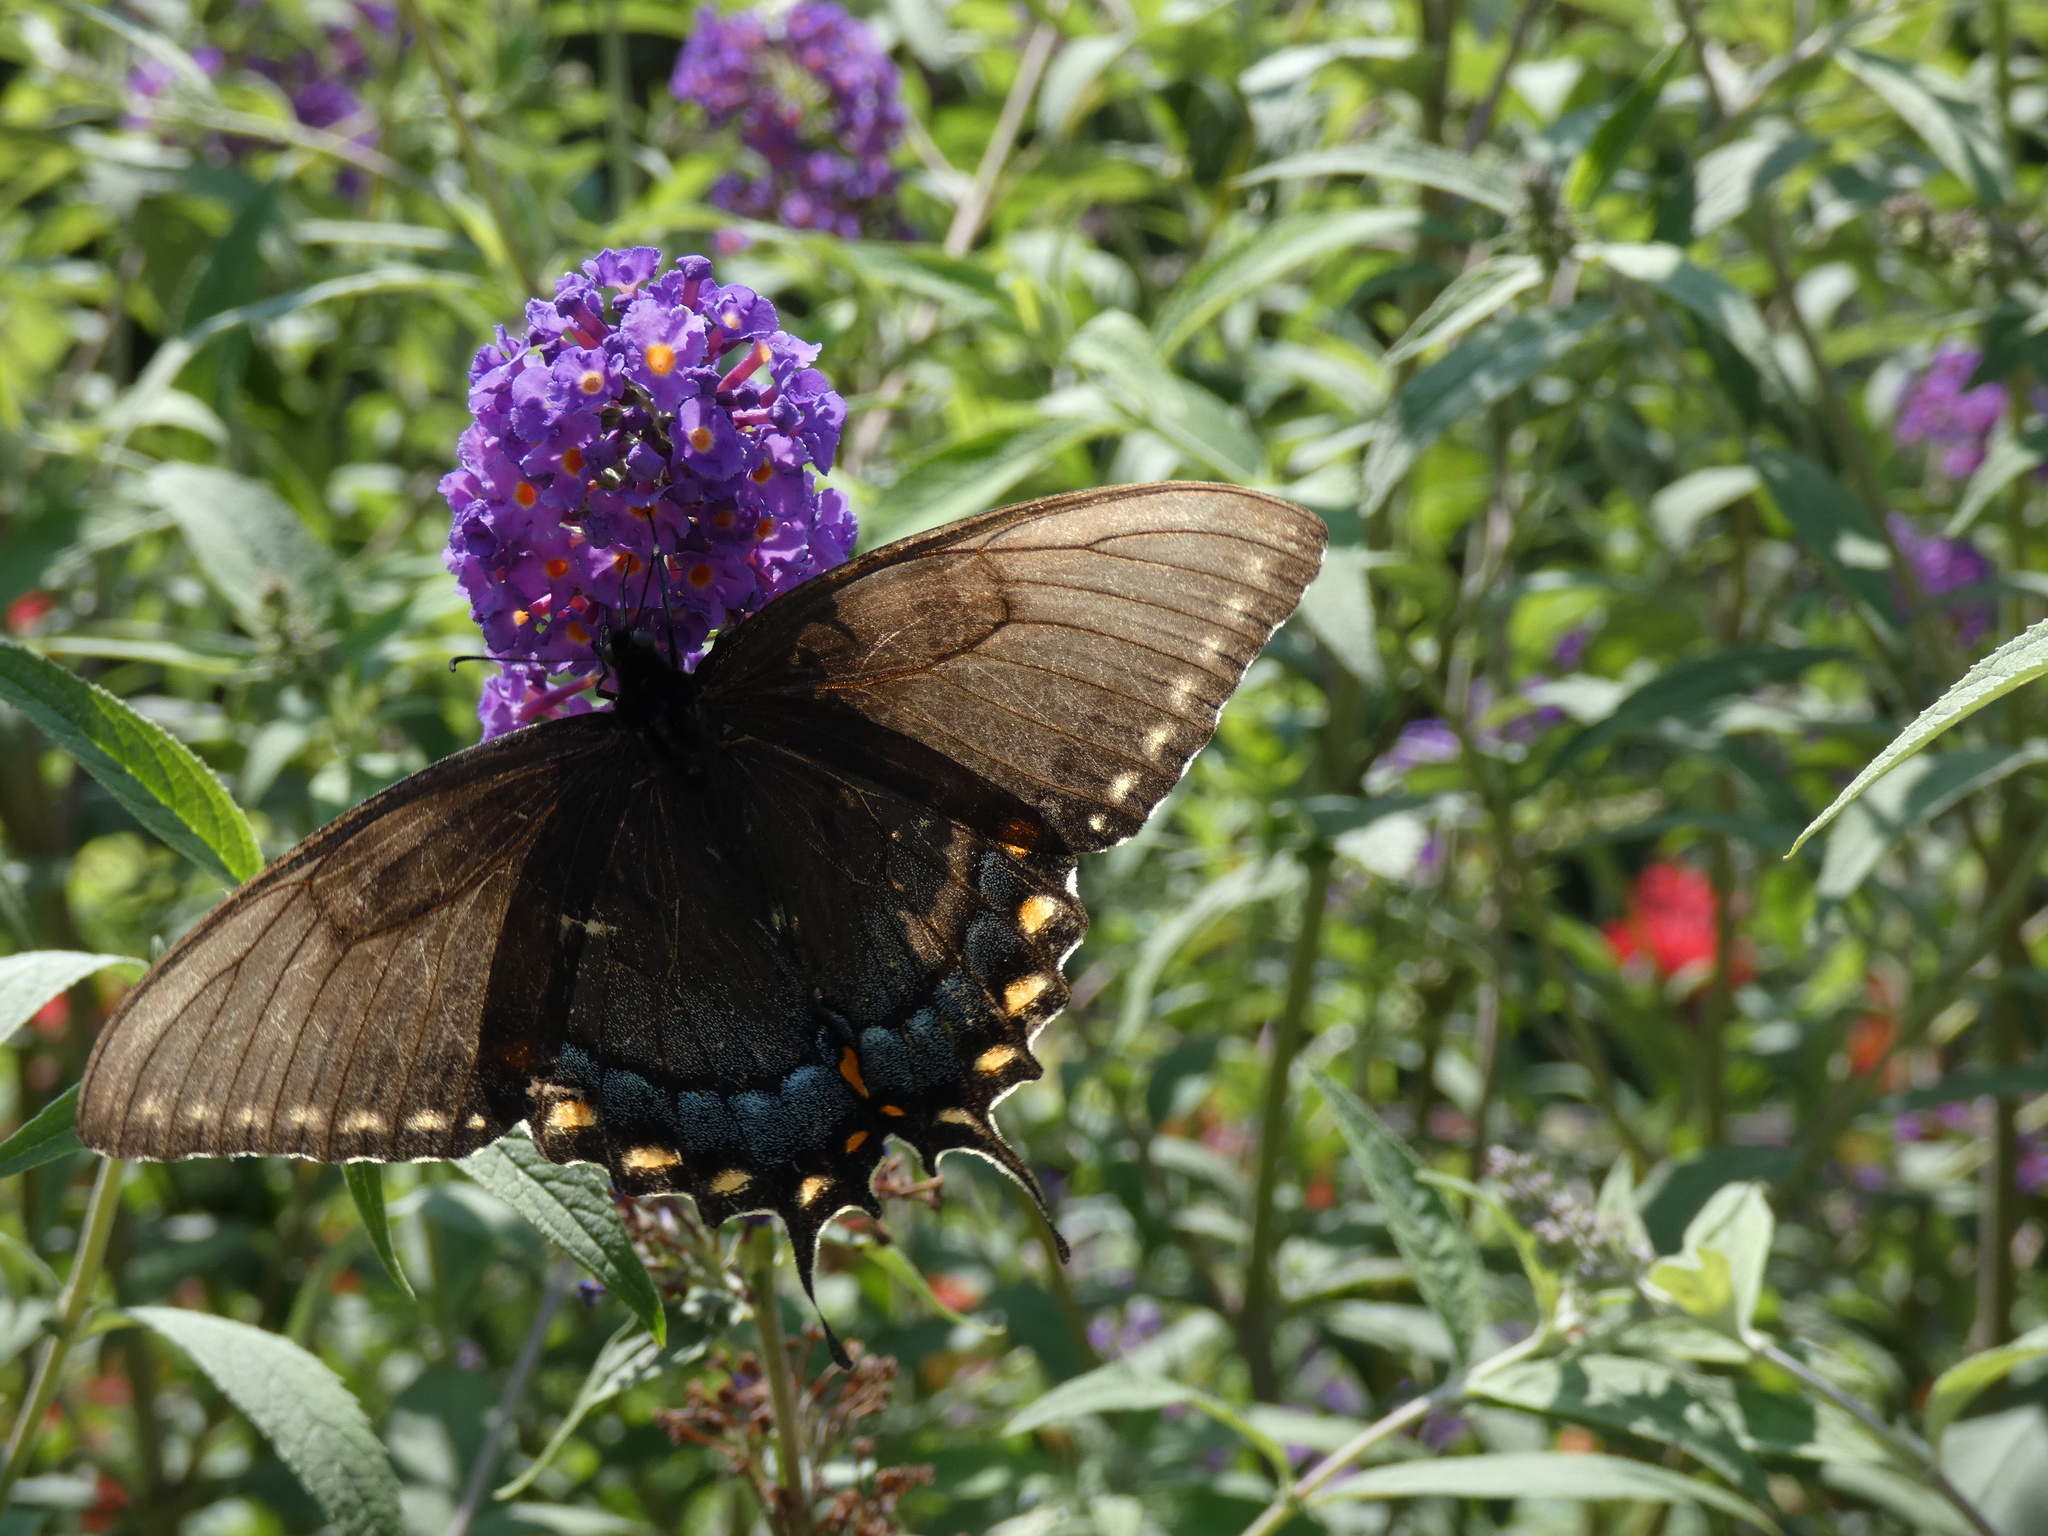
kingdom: Animalia
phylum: Arthropoda
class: Insecta
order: Lepidoptera
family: Papilionidae
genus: Papilio
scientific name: Papilio glaucus
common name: Tiger swallowtail
